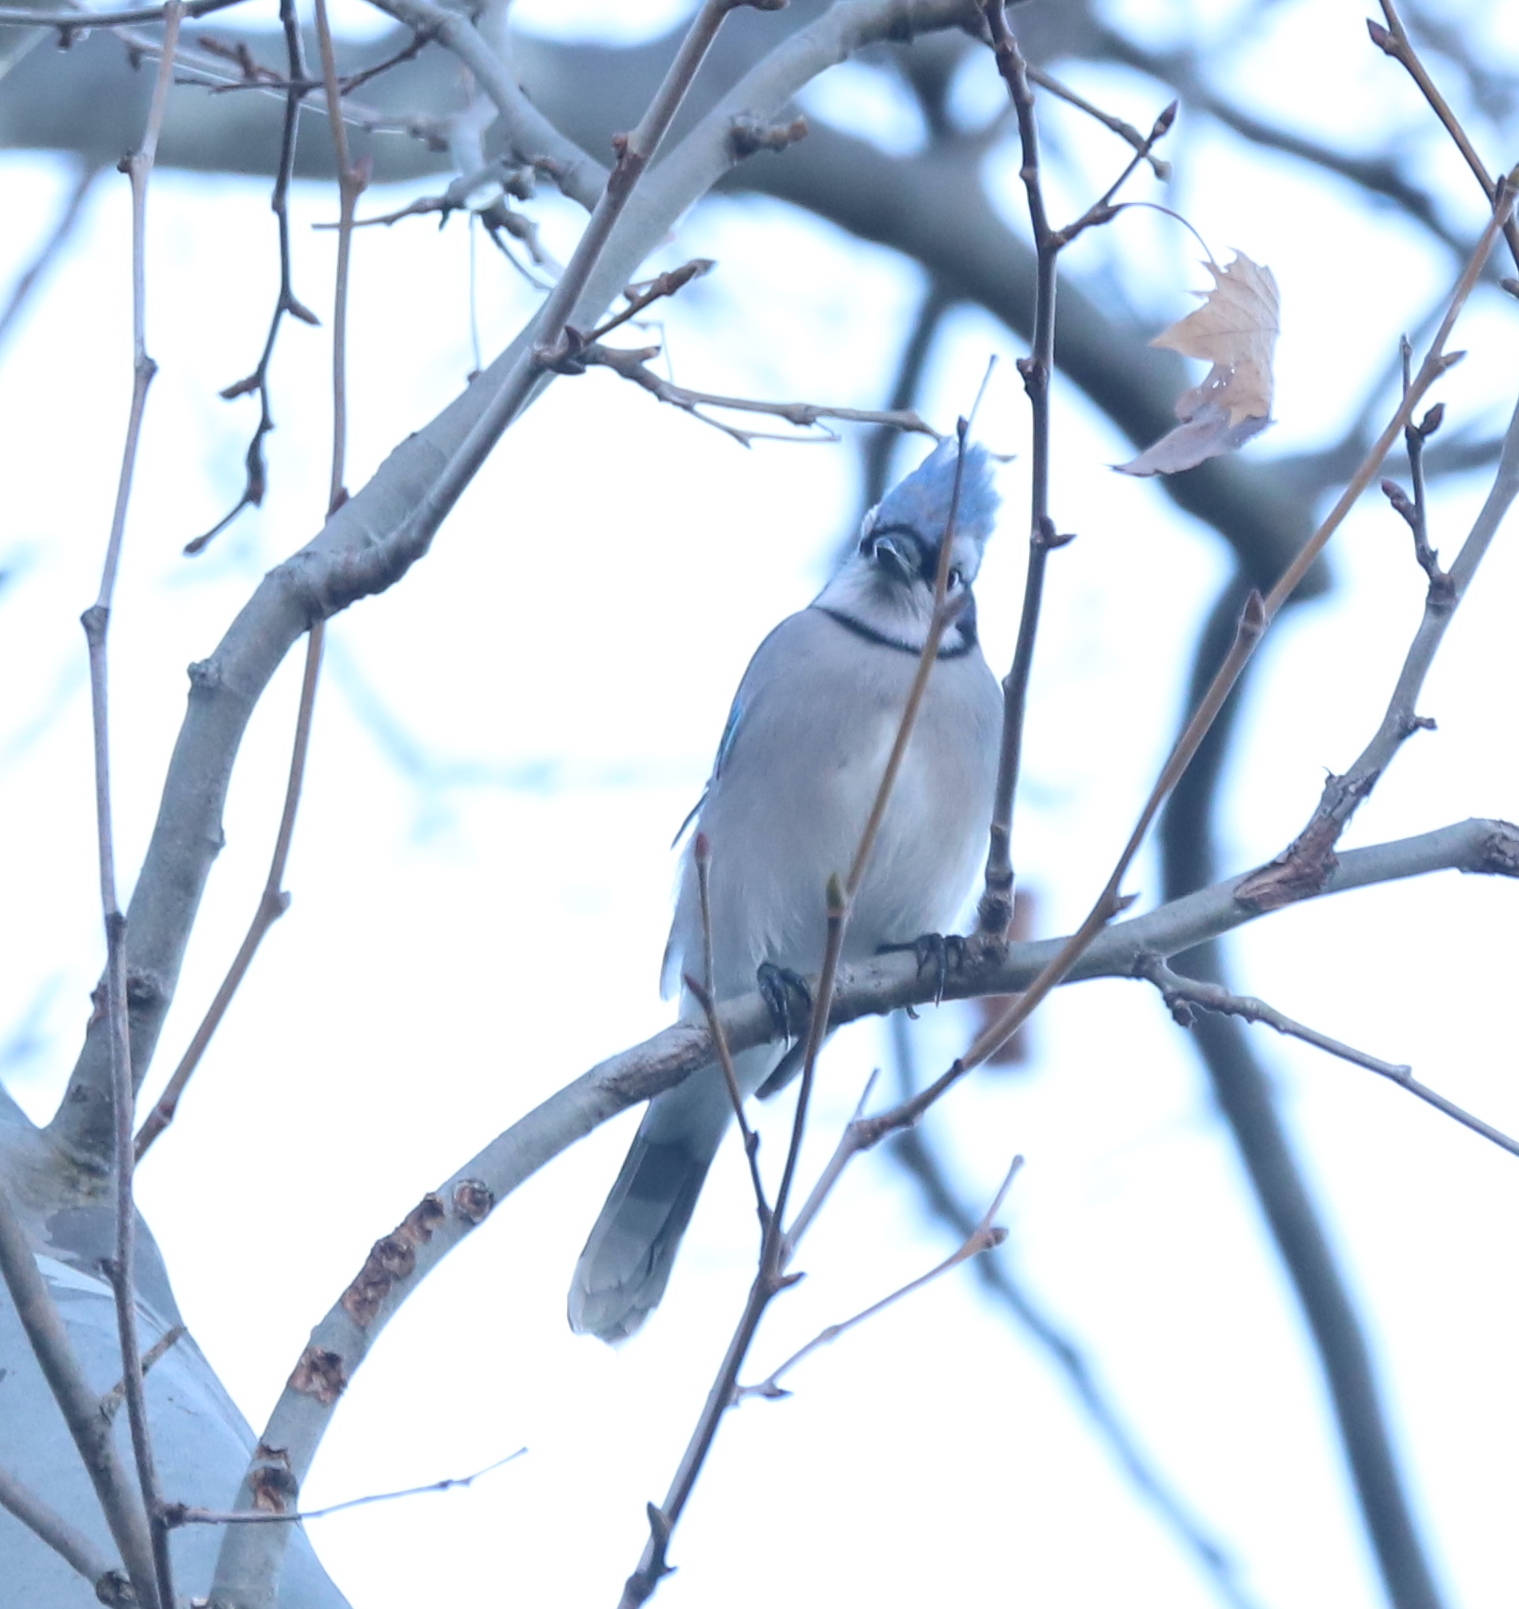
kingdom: Animalia
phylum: Chordata
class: Aves
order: Passeriformes
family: Corvidae
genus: Cyanocitta
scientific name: Cyanocitta cristata
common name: Blue jay
